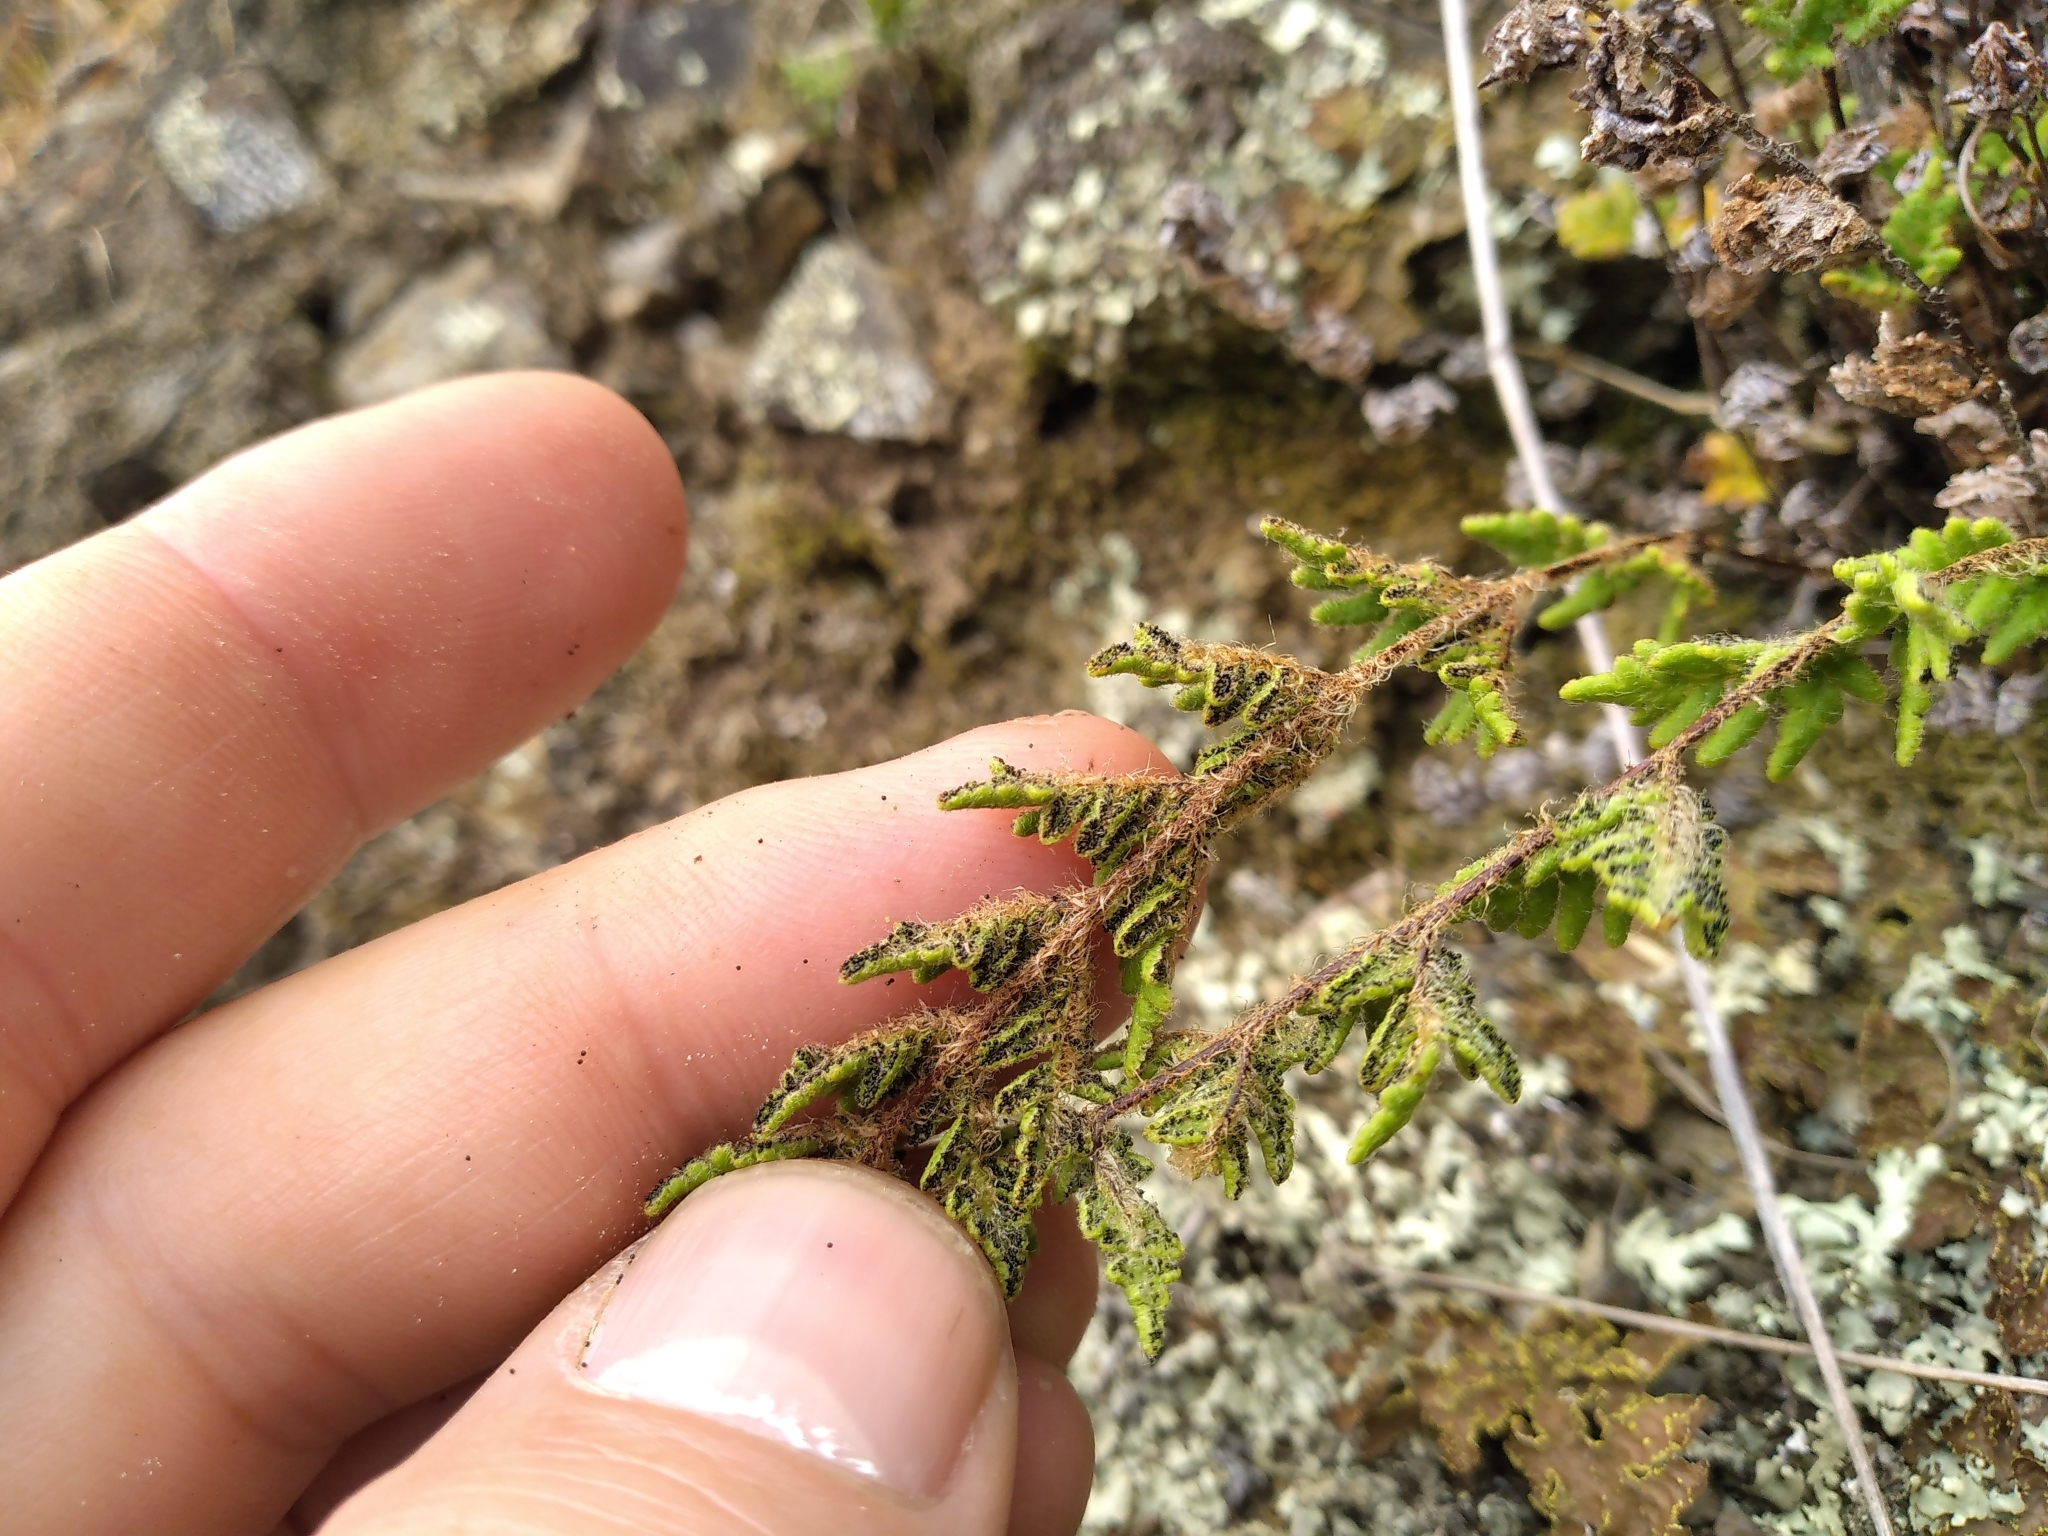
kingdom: Plantae
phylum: Tracheophyta
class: Polypodiopsida
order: Polypodiales
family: Pteridaceae
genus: Cheilanthes
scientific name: Cheilanthes distans
